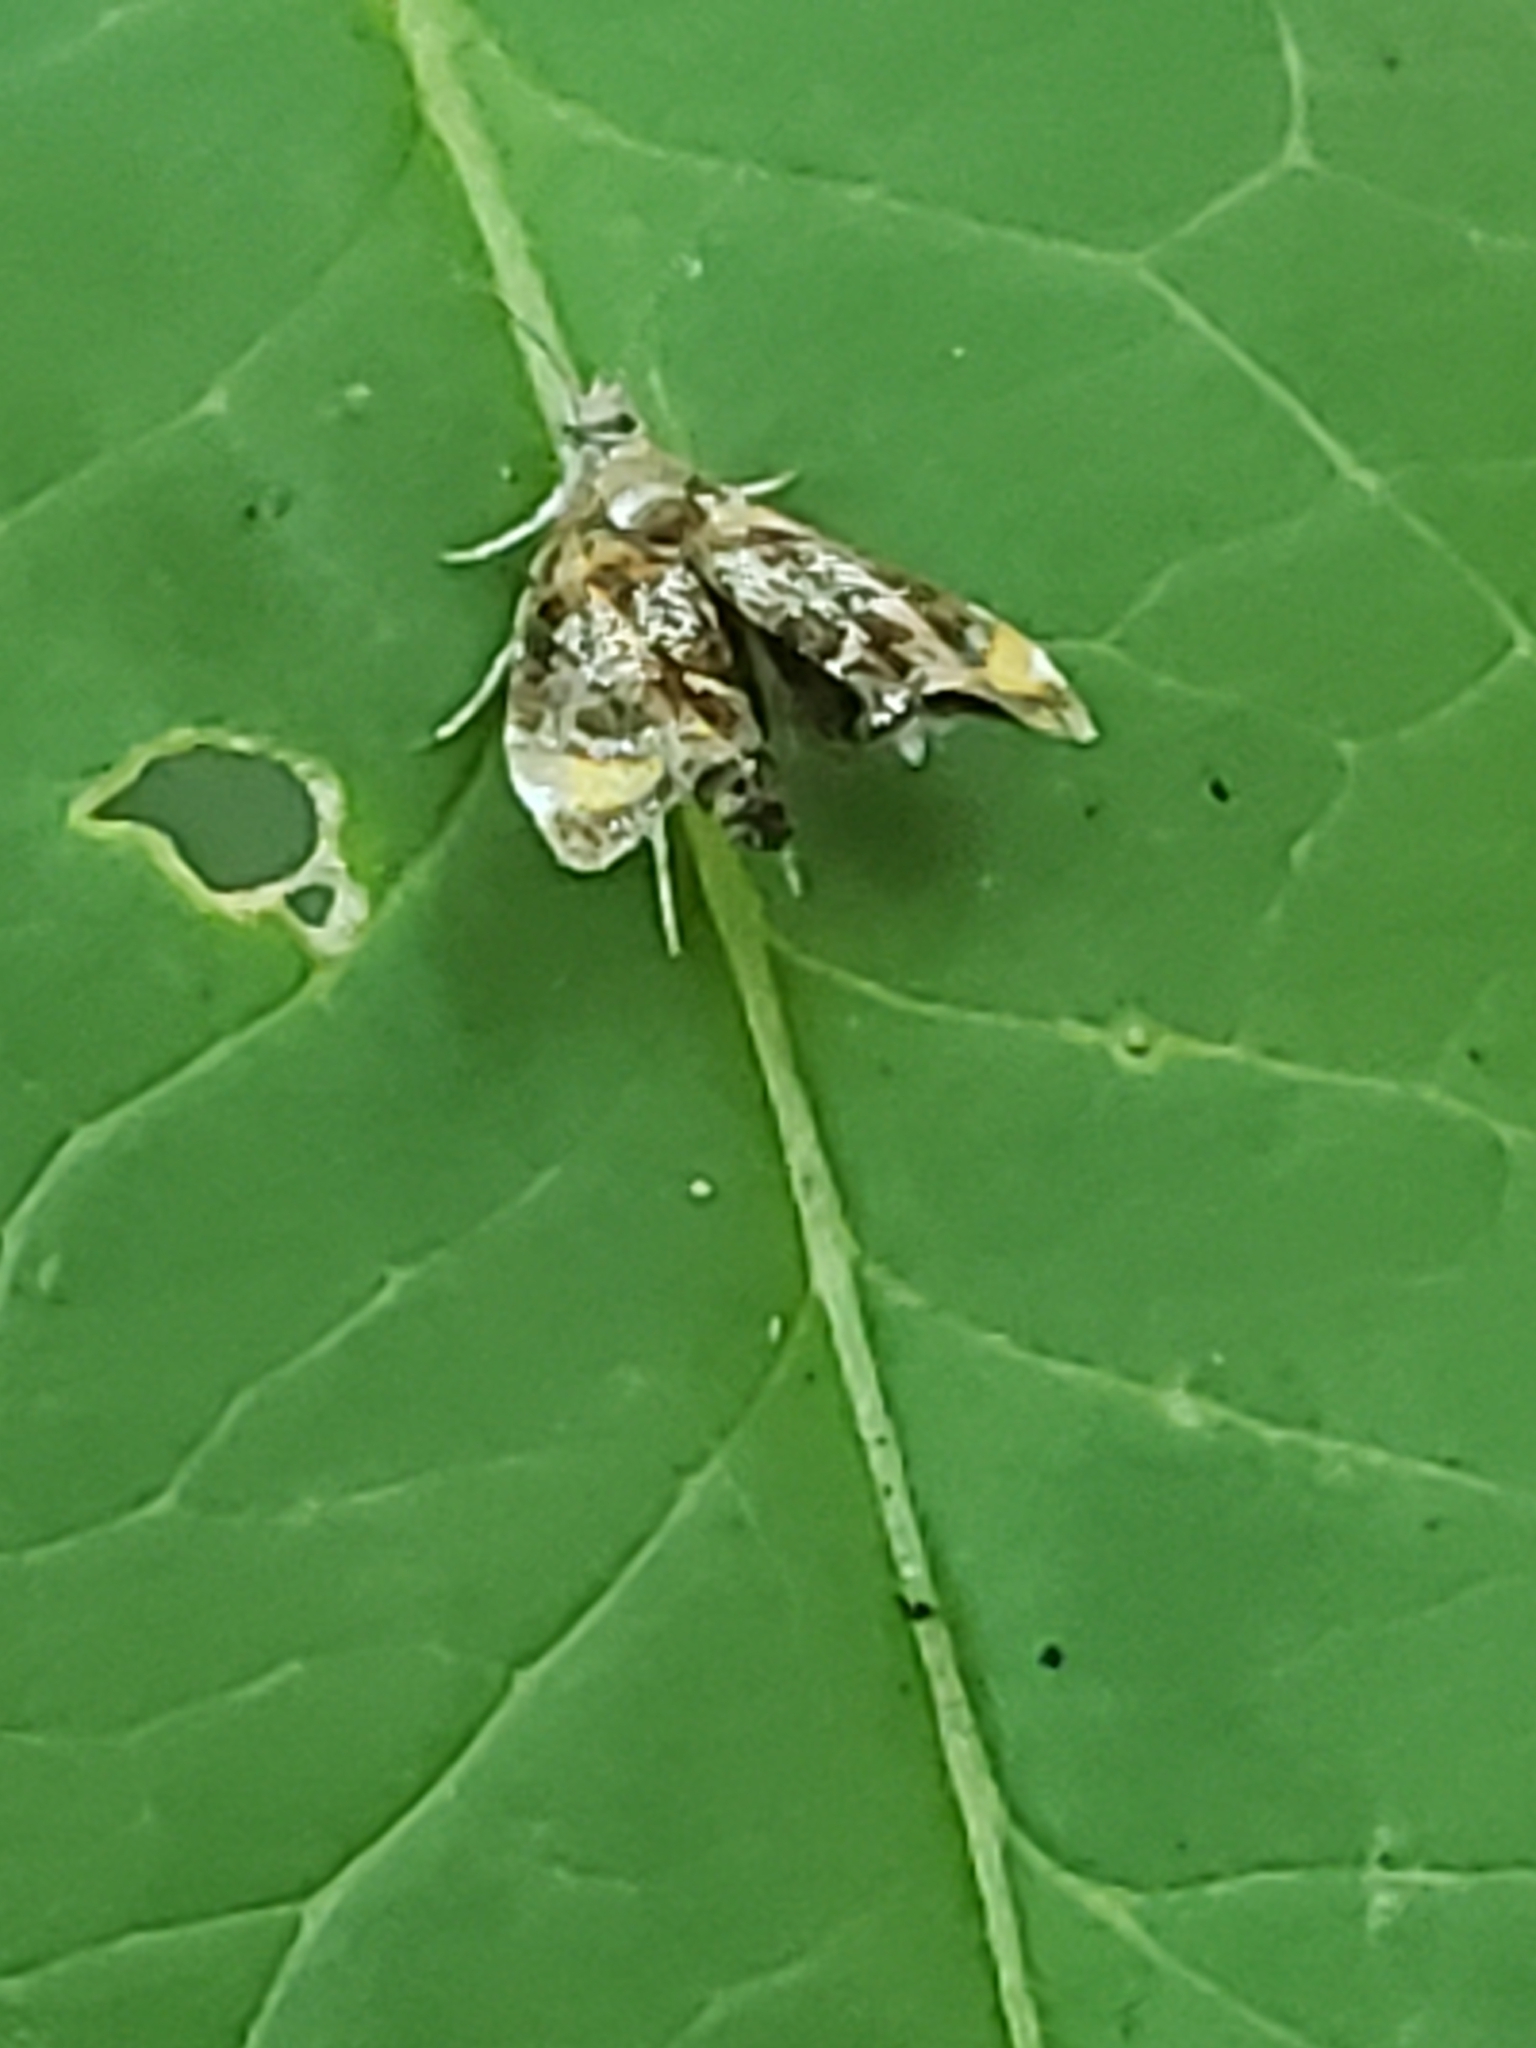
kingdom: Animalia
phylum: Arthropoda
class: Insecta
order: Lepidoptera
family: Choreutidae
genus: Prochoreutis
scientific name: Prochoreutis inflatella
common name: Skullcap skeletonizer moth
